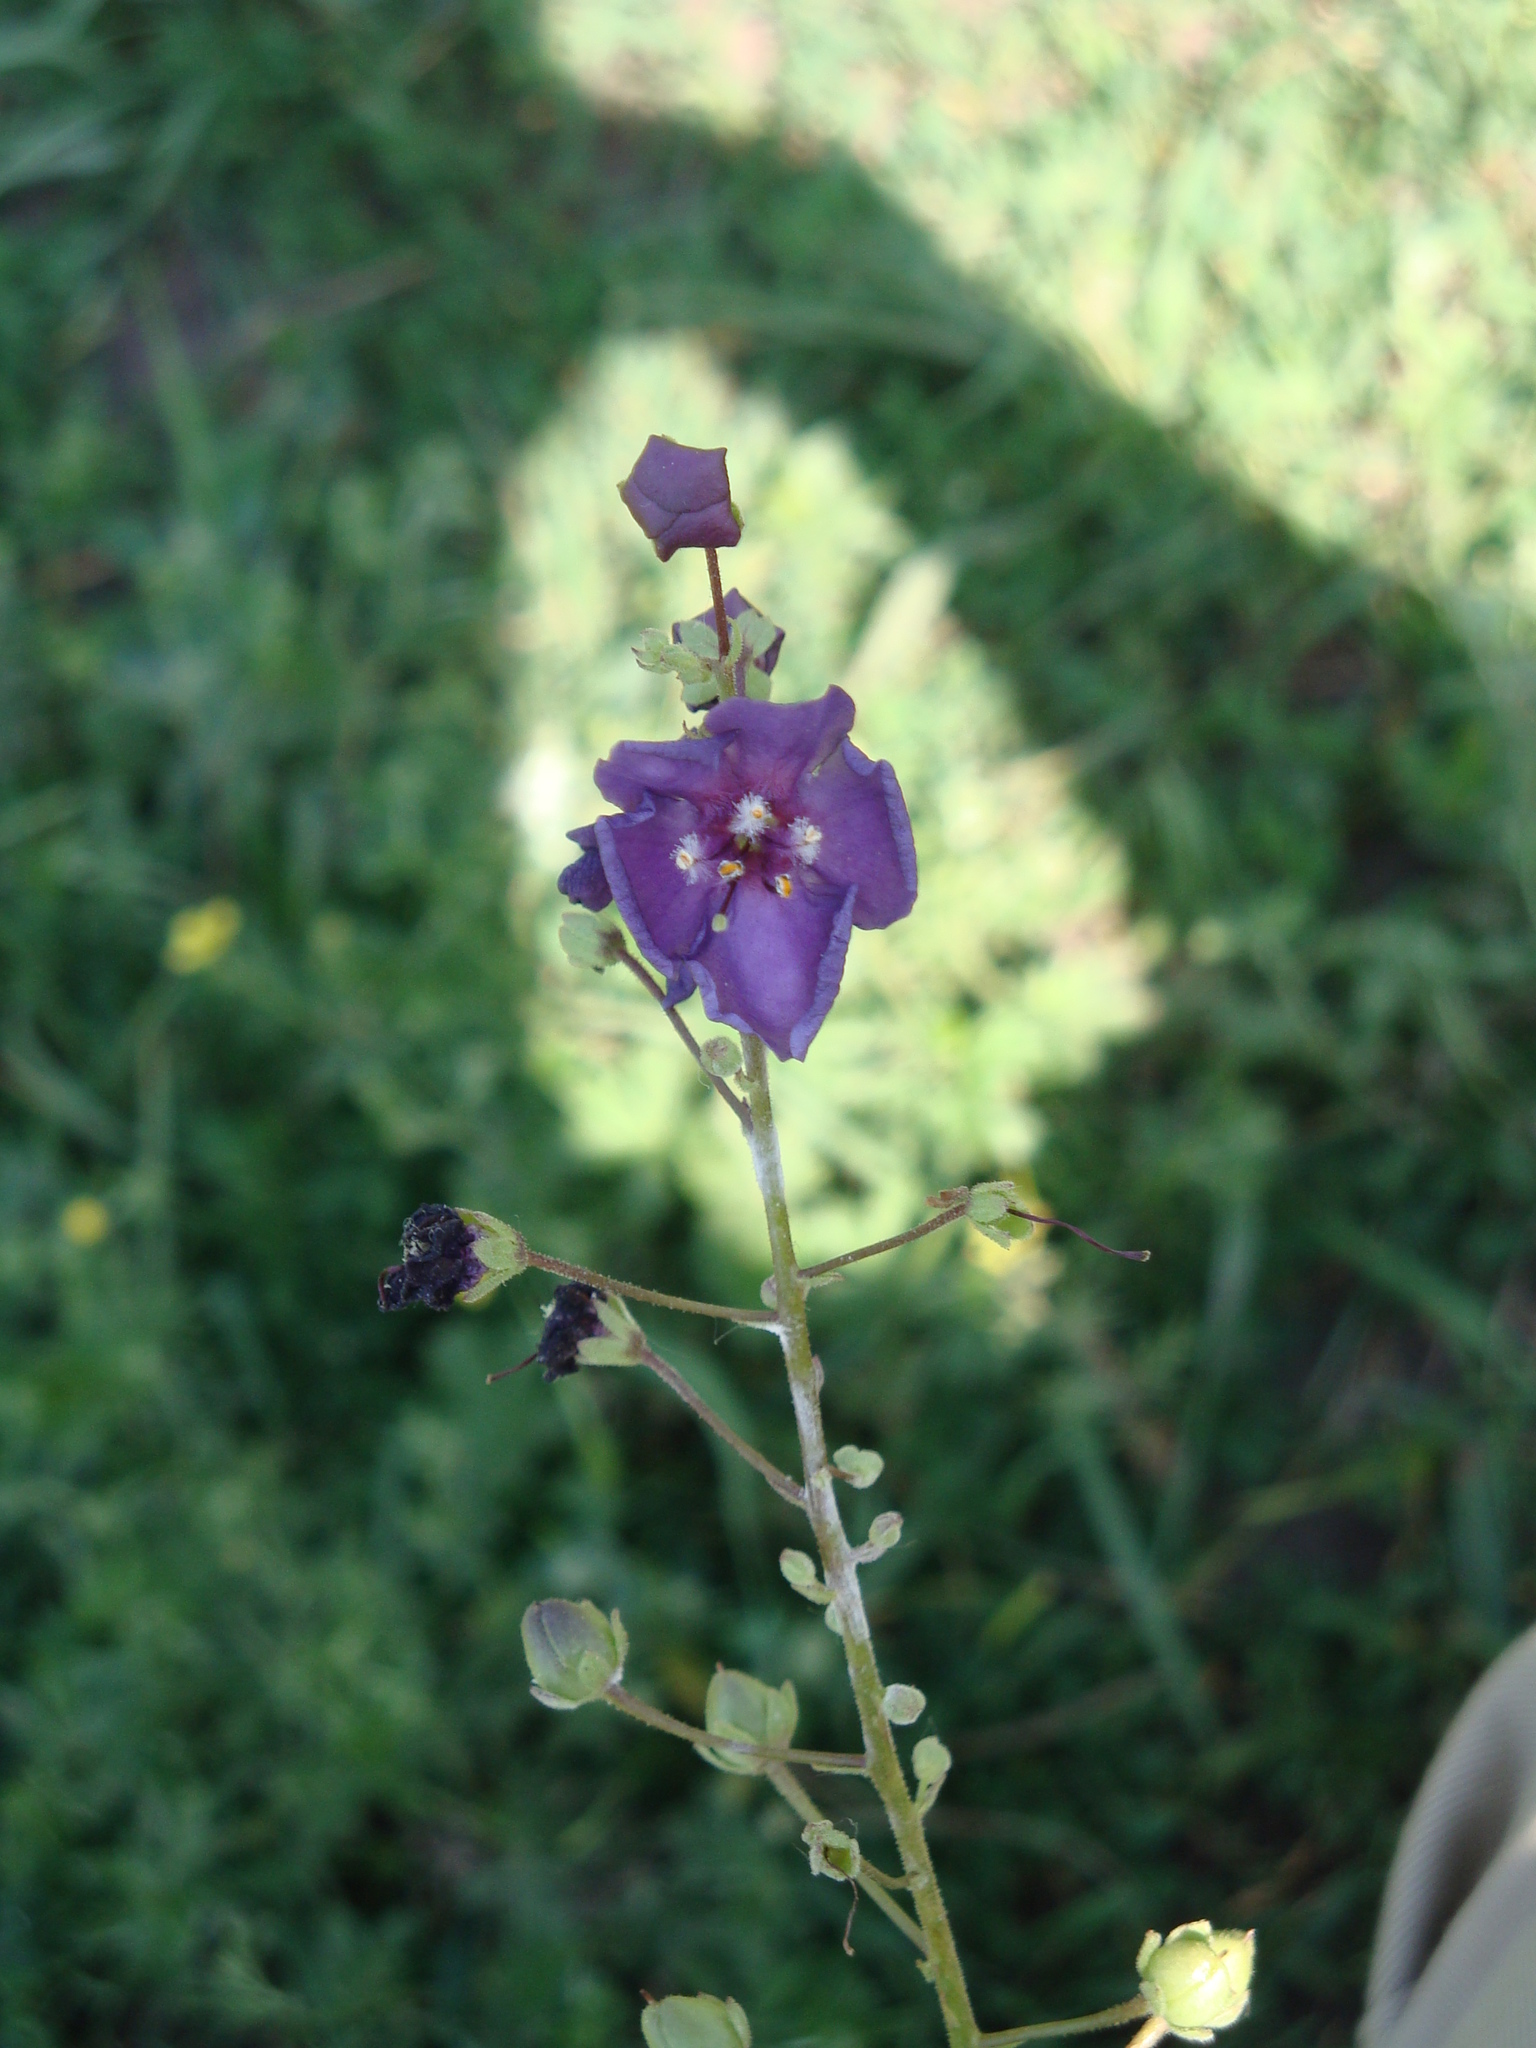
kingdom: Plantae
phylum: Tracheophyta
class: Magnoliopsida
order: Lamiales
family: Scrophulariaceae
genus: Verbascum
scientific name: Verbascum phoeniceum
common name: Purple mullein
